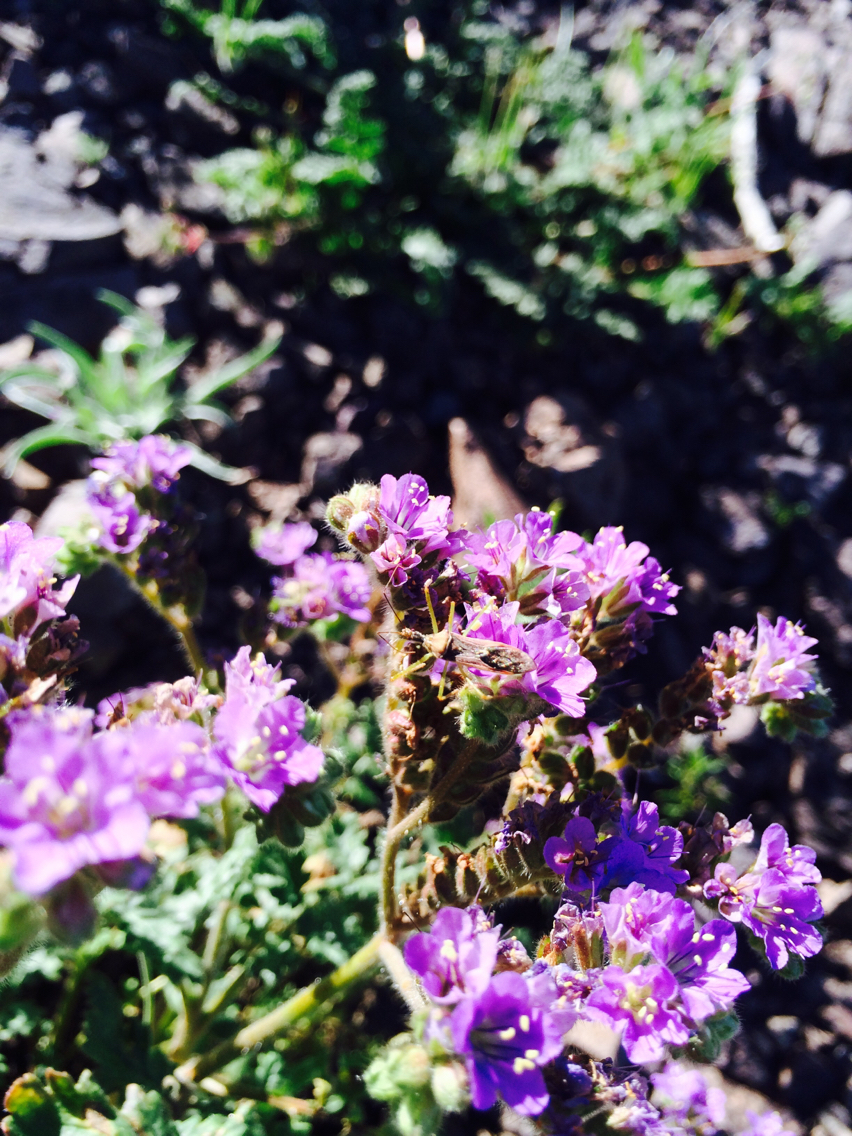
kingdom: Plantae
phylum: Tracheophyta
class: Magnoliopsida
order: Boraginales
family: Hydrophyllaceae
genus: Phacelia
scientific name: Phacelia crenulata
